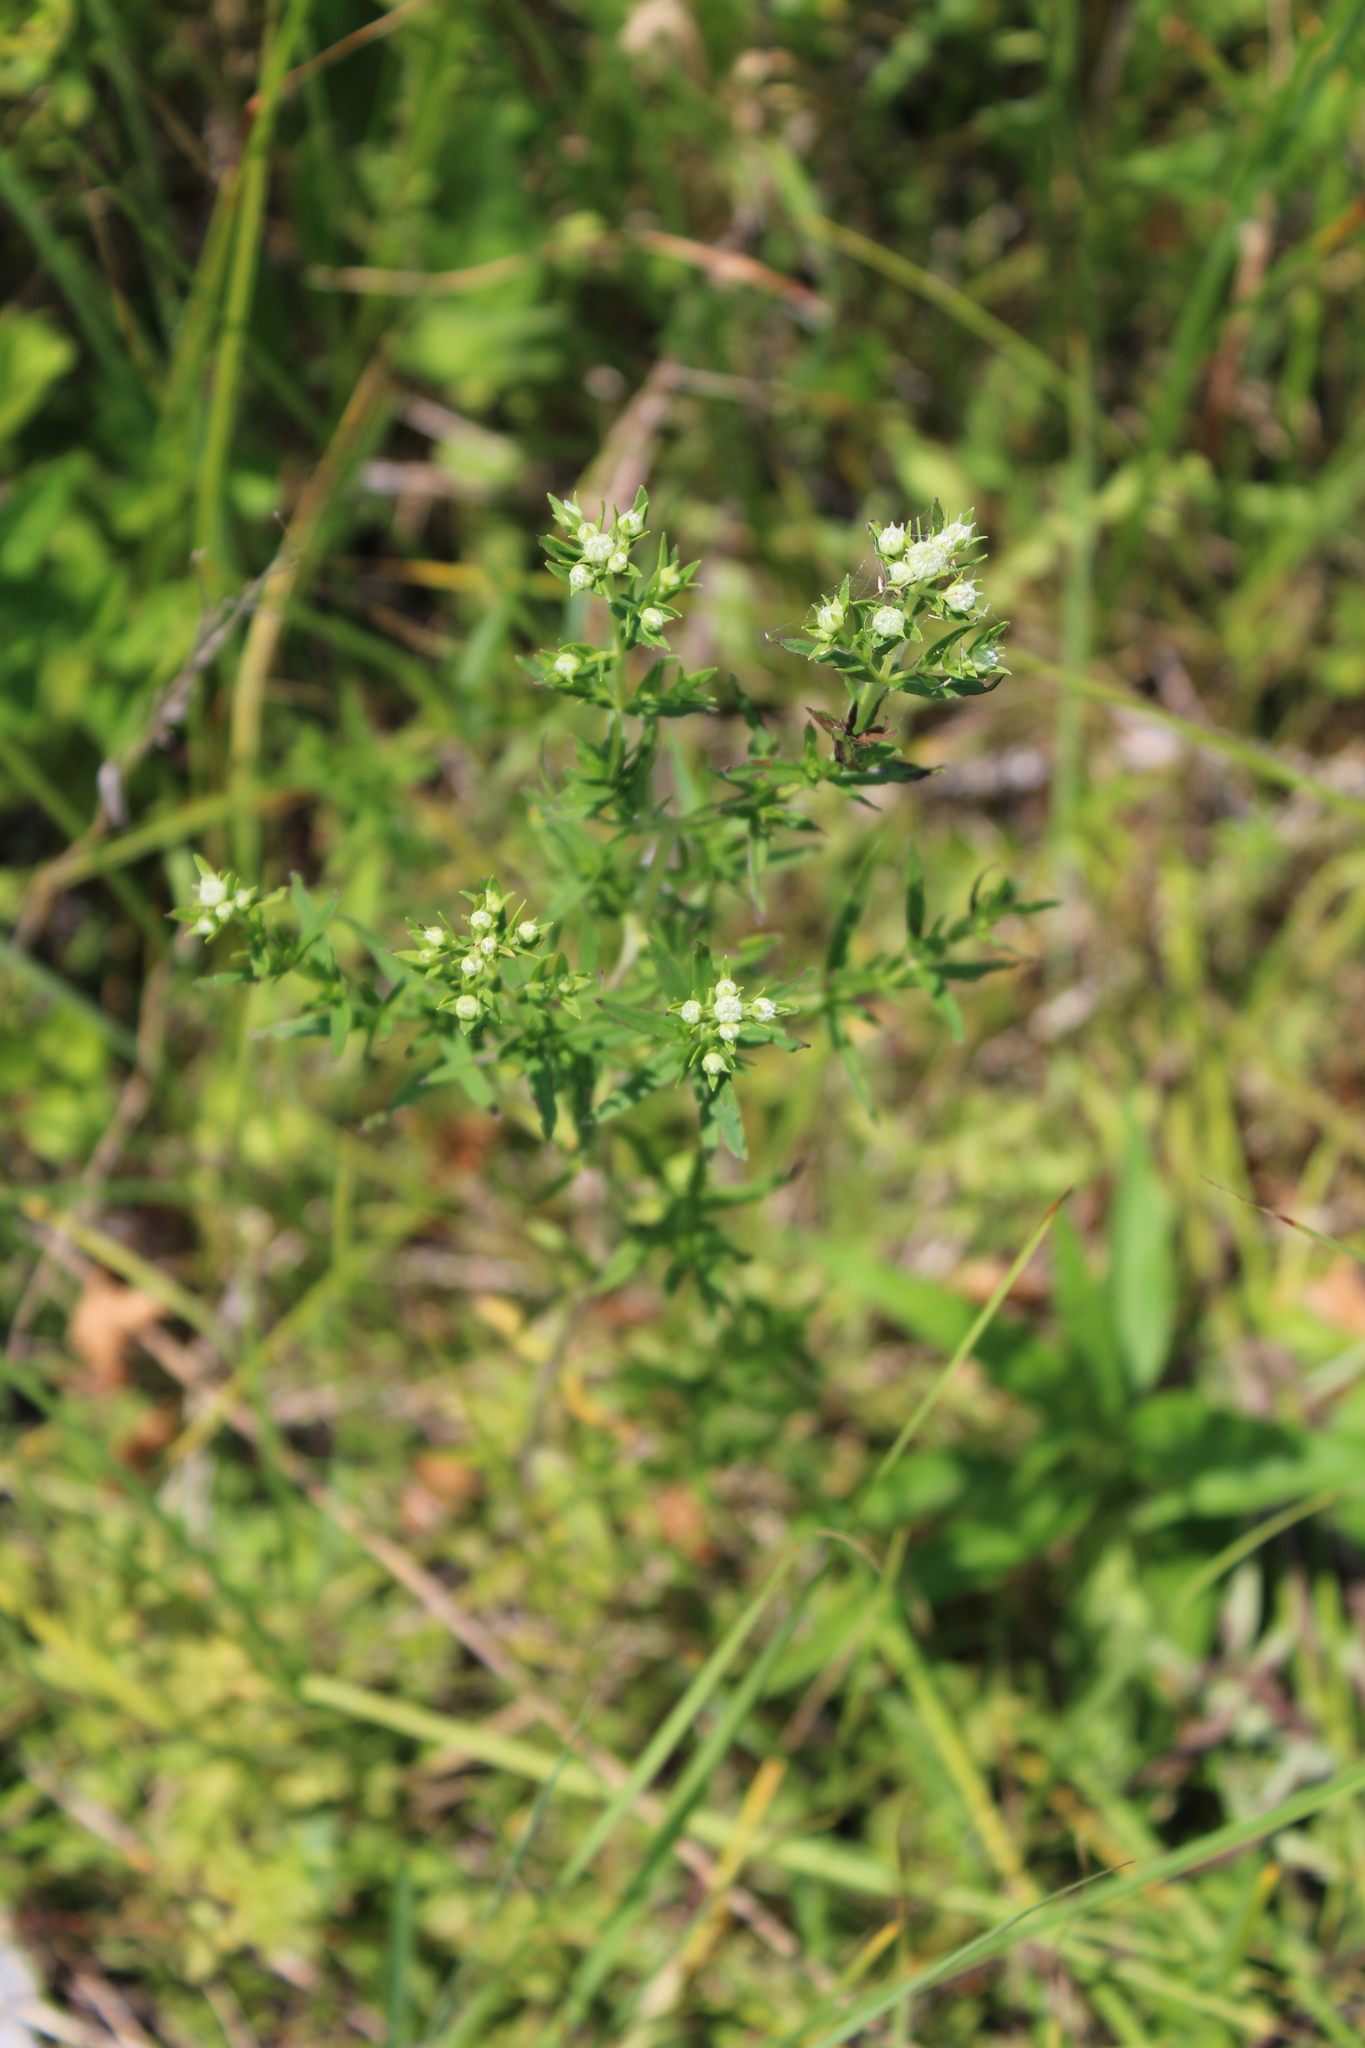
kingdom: Plantae
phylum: Tracheophyta
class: Magnoliopsida
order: Lamiales
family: Lamiaceae
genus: Pycnanthemum
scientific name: Pycnanthemum virginianum
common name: Virginia mountain-mint
